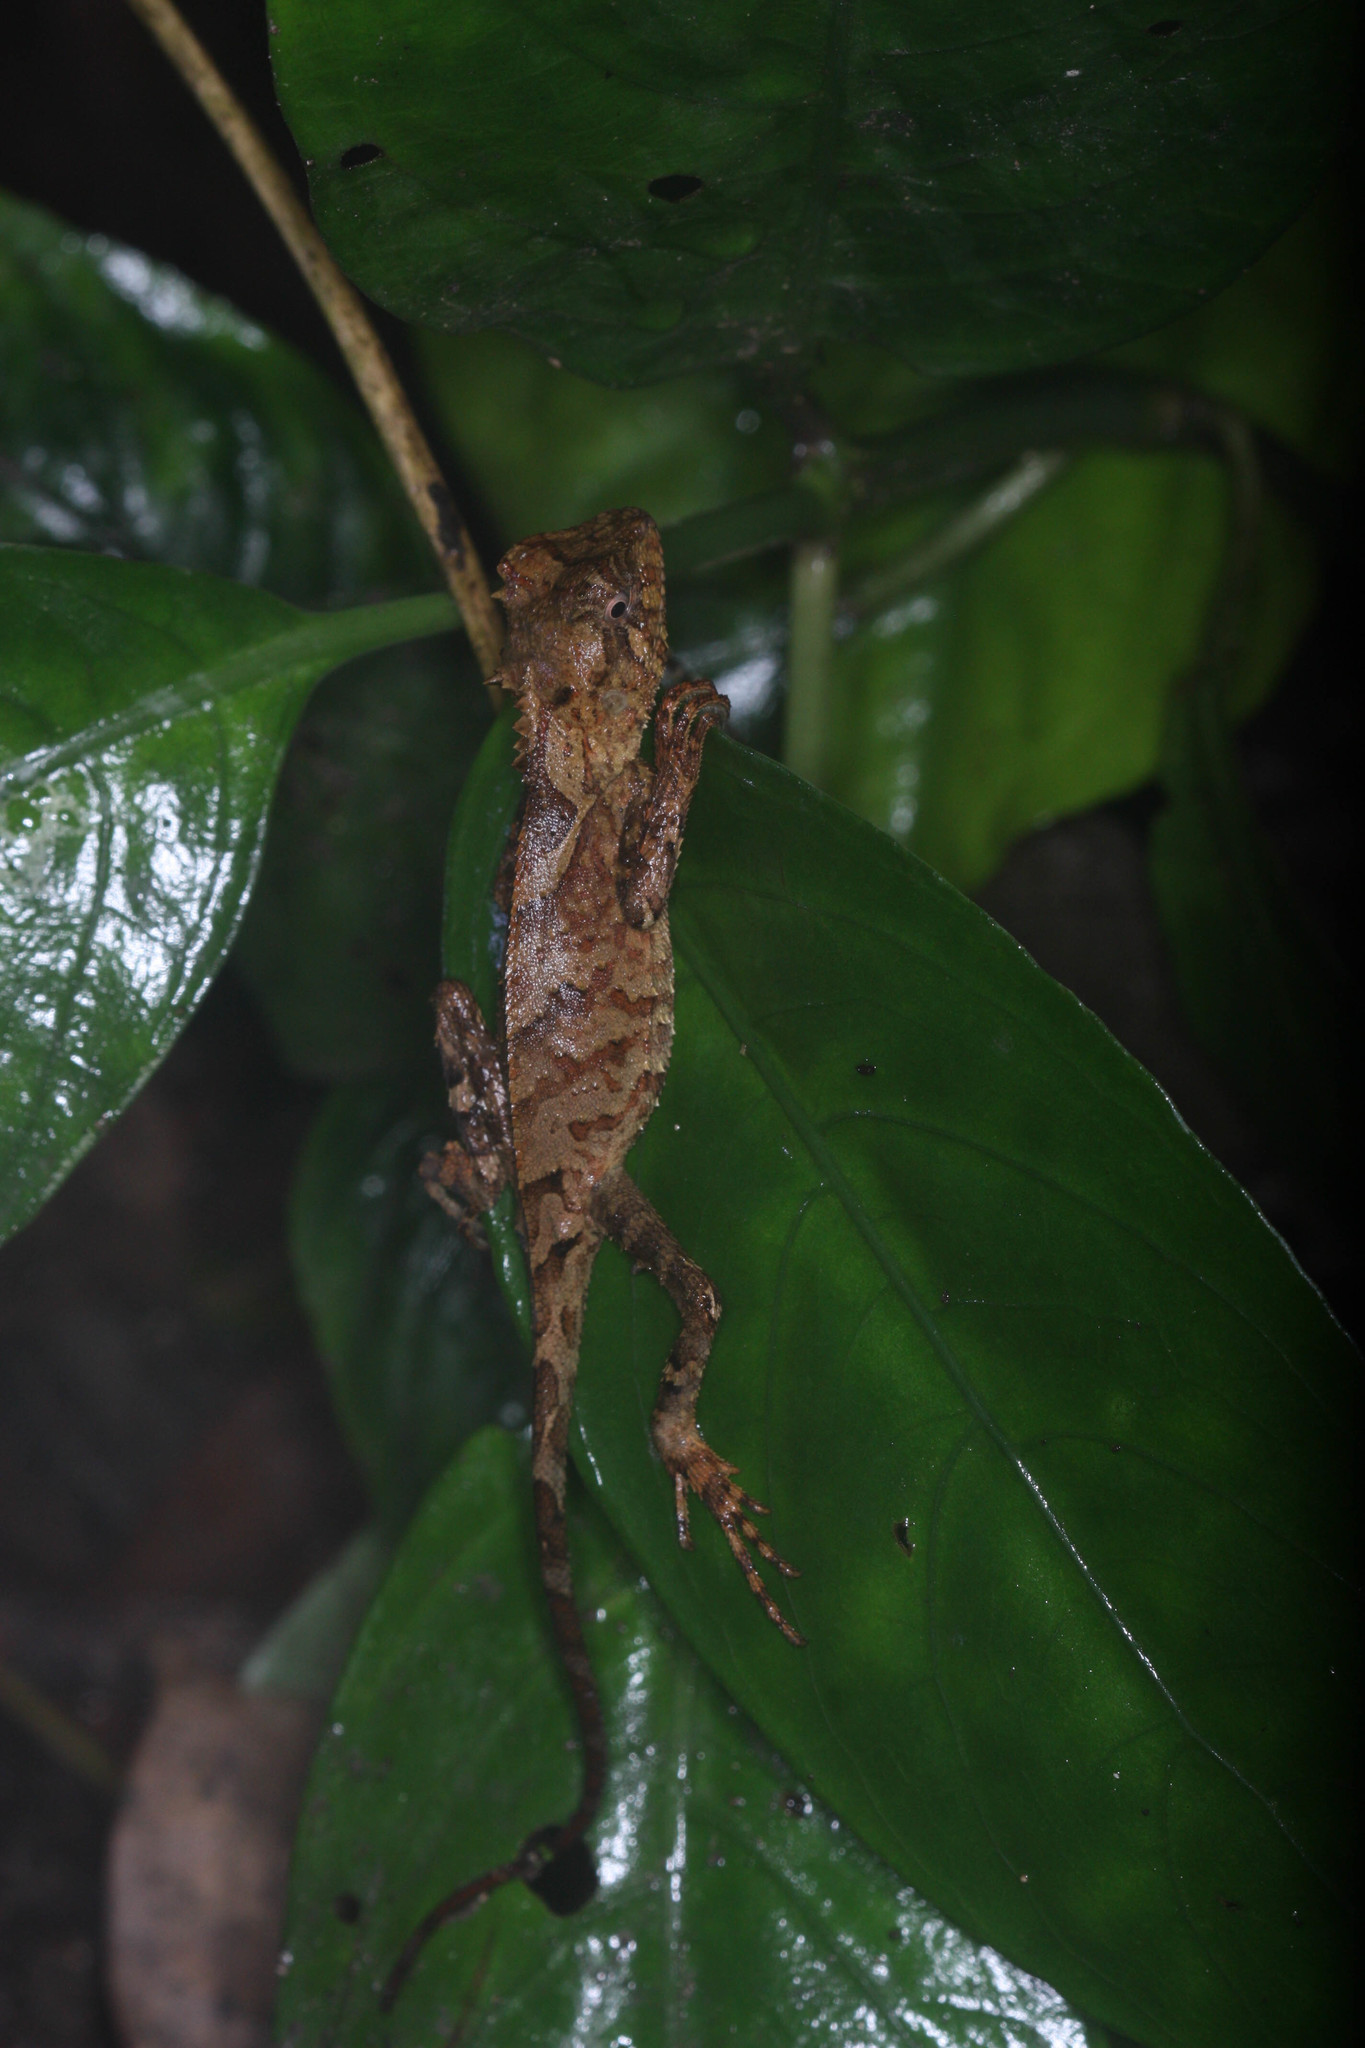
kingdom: Animalia
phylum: Chordata
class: Squamata
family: Agamidae
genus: Acanthosaura
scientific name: Acanthosaura lepidogaster
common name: Brown pricklenape
